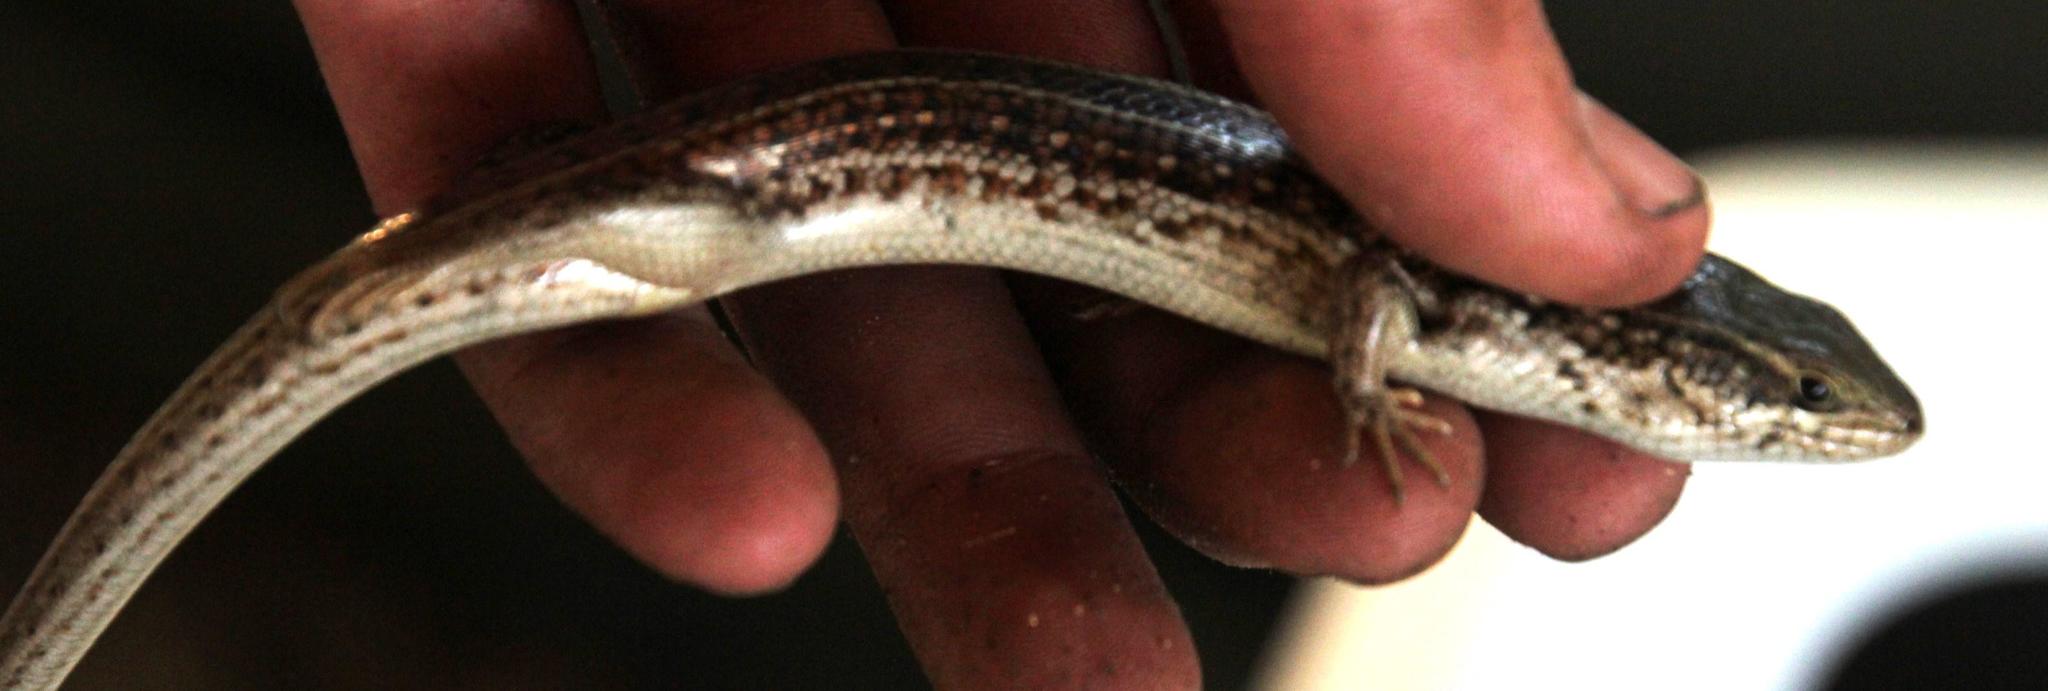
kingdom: Animalia
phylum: Chordata
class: Squamata
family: Scincidae
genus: Trachylepis
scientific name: Trachylepis capensis
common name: Cape skink
